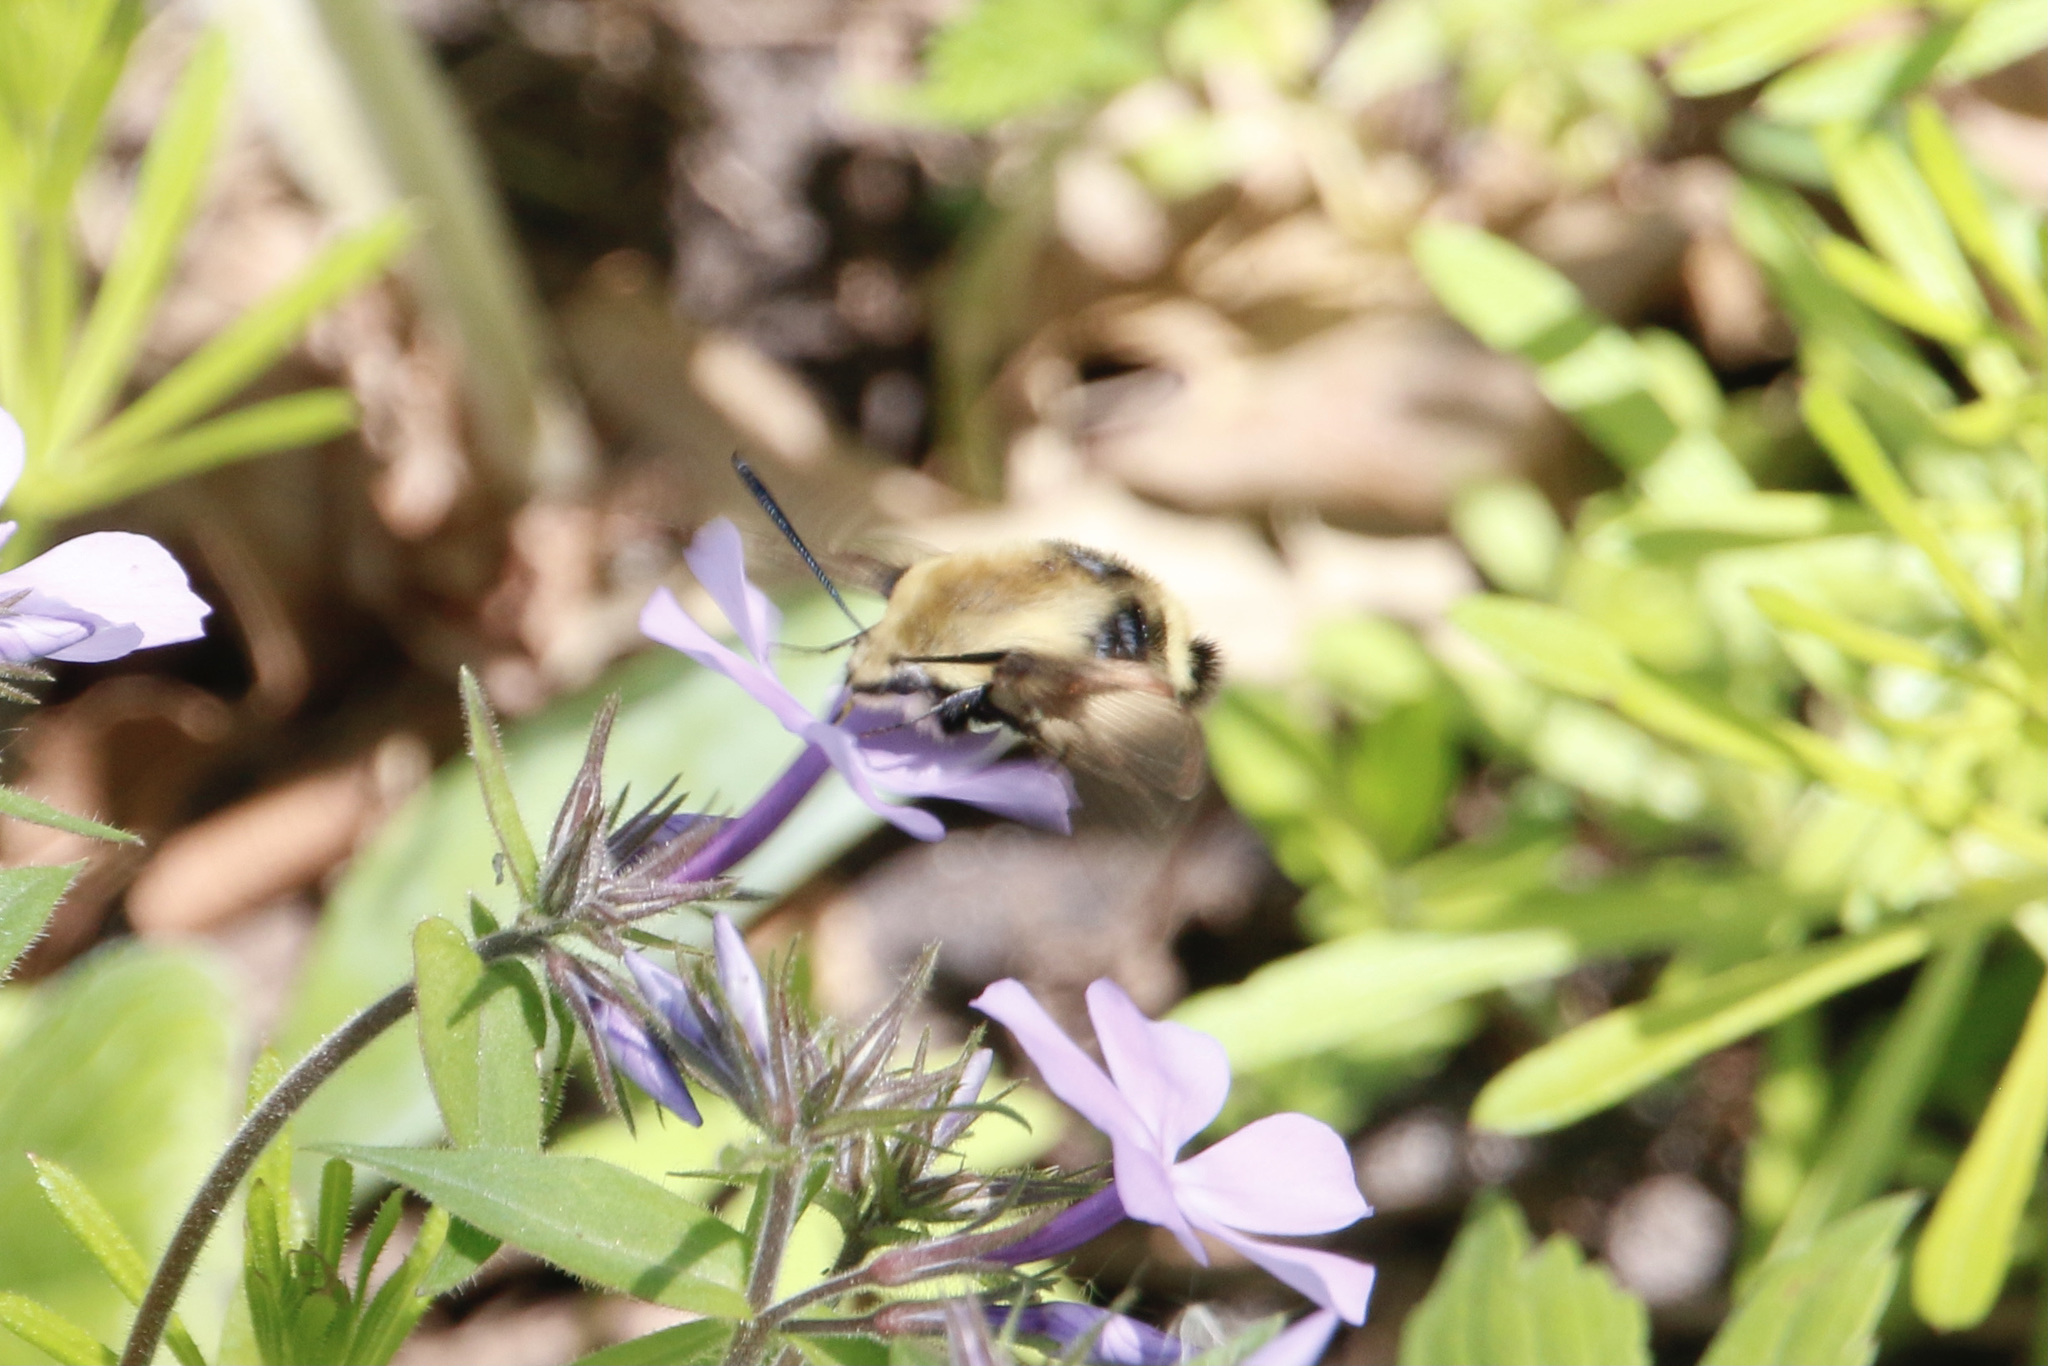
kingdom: Animalia
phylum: Arthropoda
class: Insecta
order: Lepidoptera
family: Sphingidae
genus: Hemaris
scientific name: Hemaris diffinis
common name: Bumblebee moth
